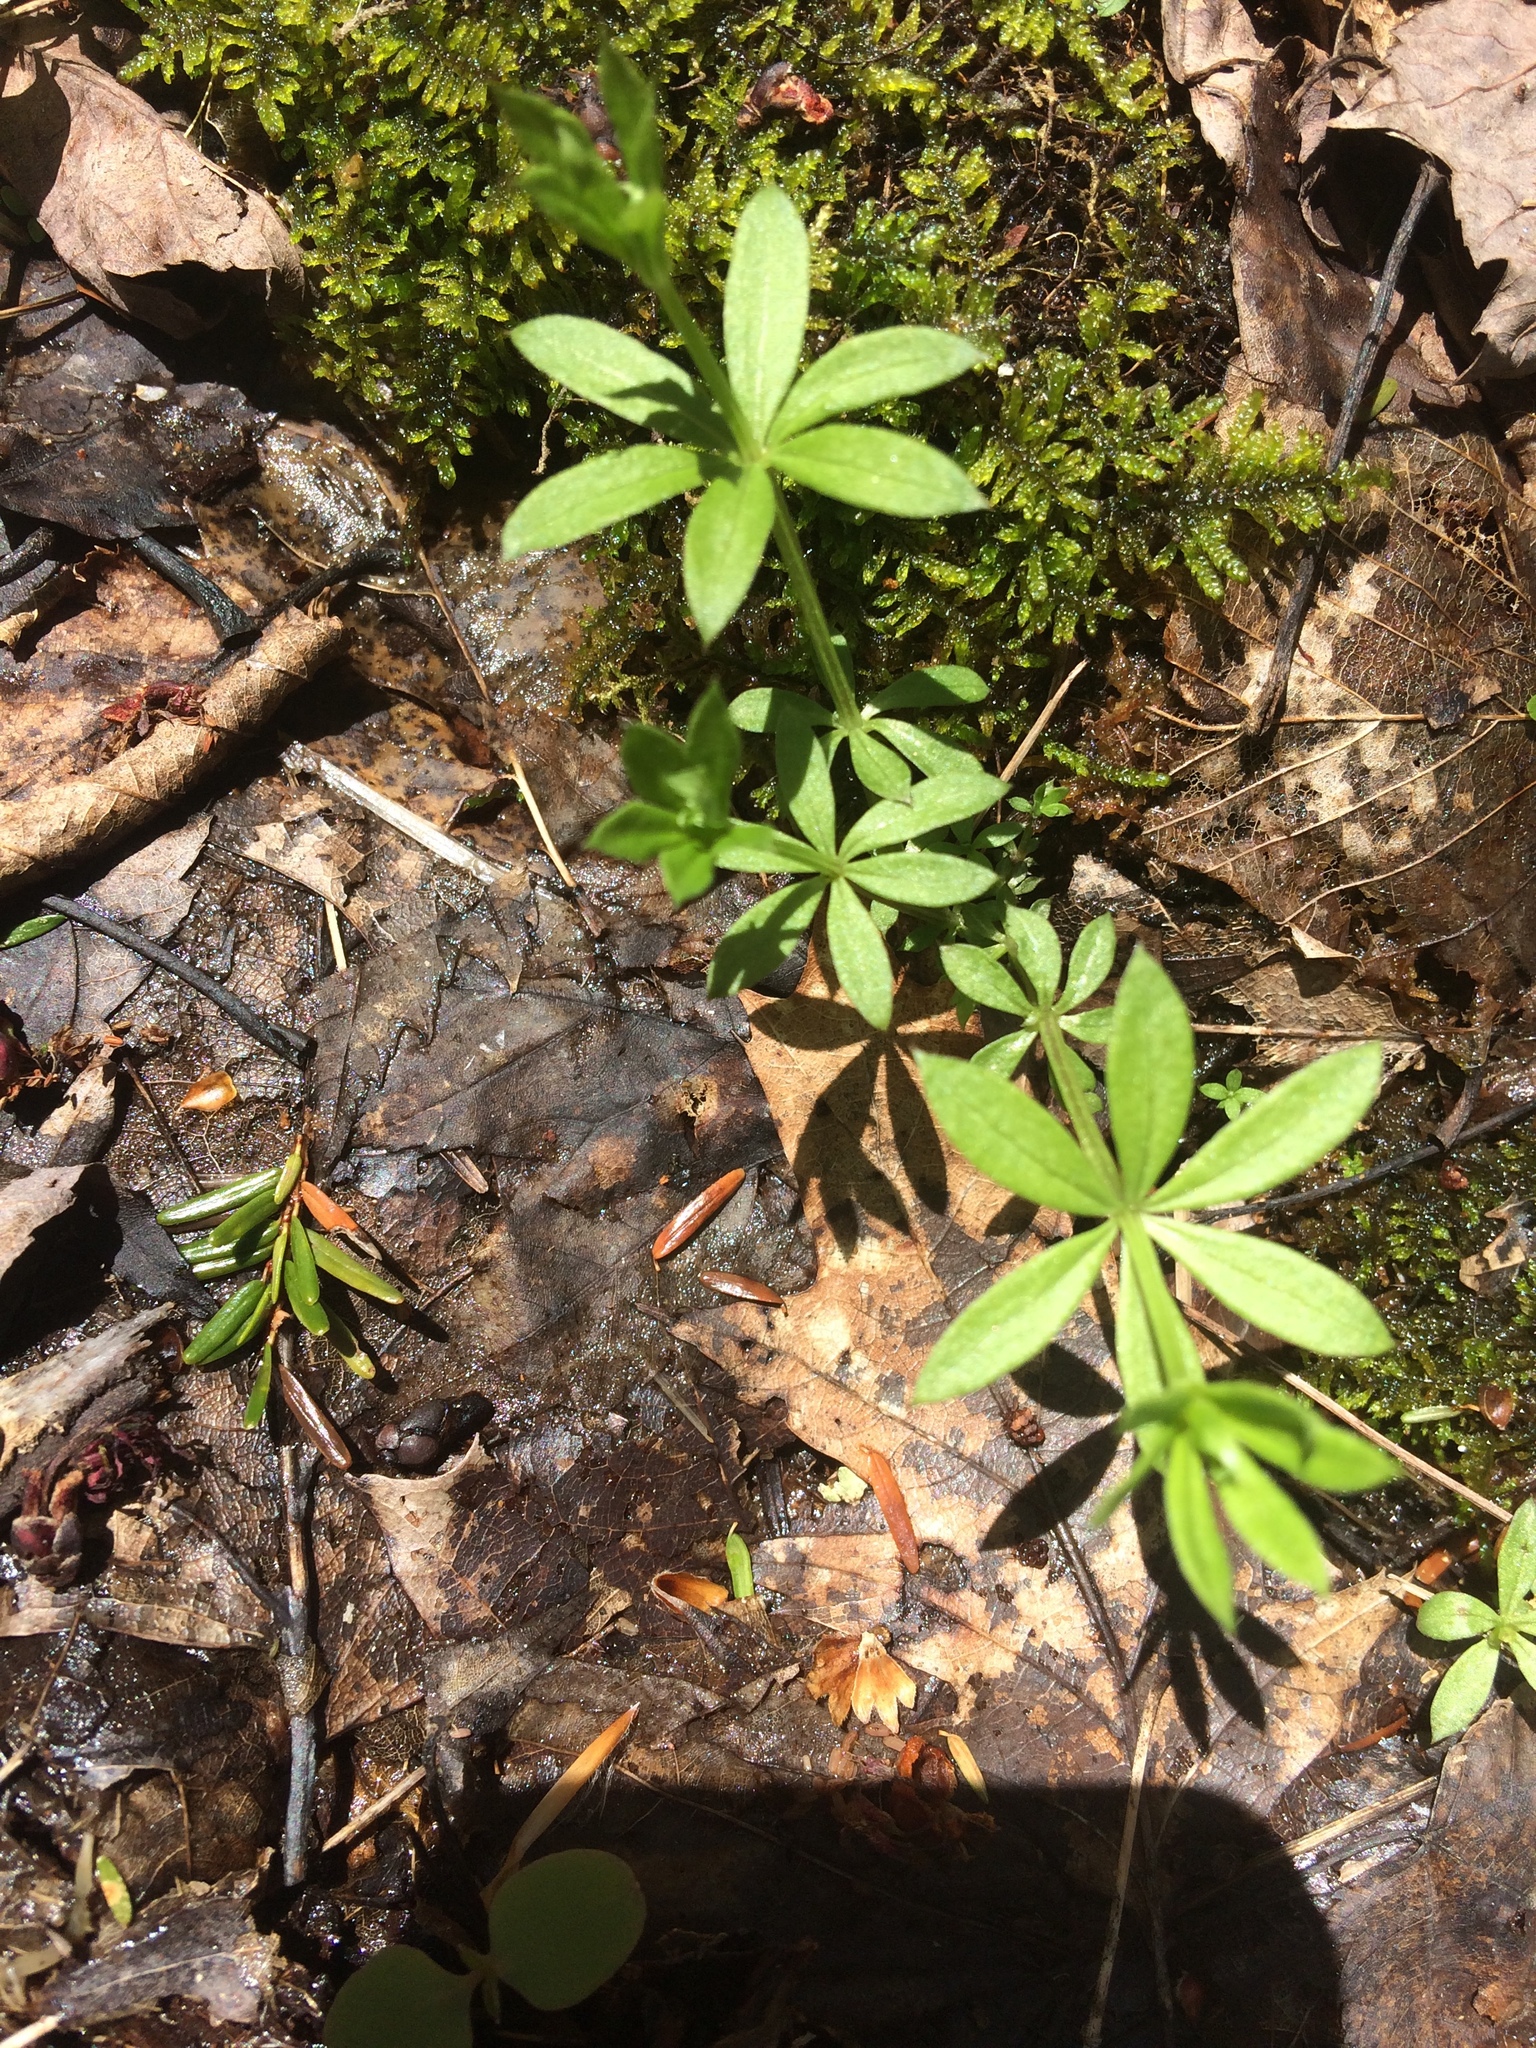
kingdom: Plantae
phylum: Tracheophyta
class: Magnoliopsida
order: Gentianales
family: Rubiaceae
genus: Galium
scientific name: Galium triflorum
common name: Fragrant bedstraw
